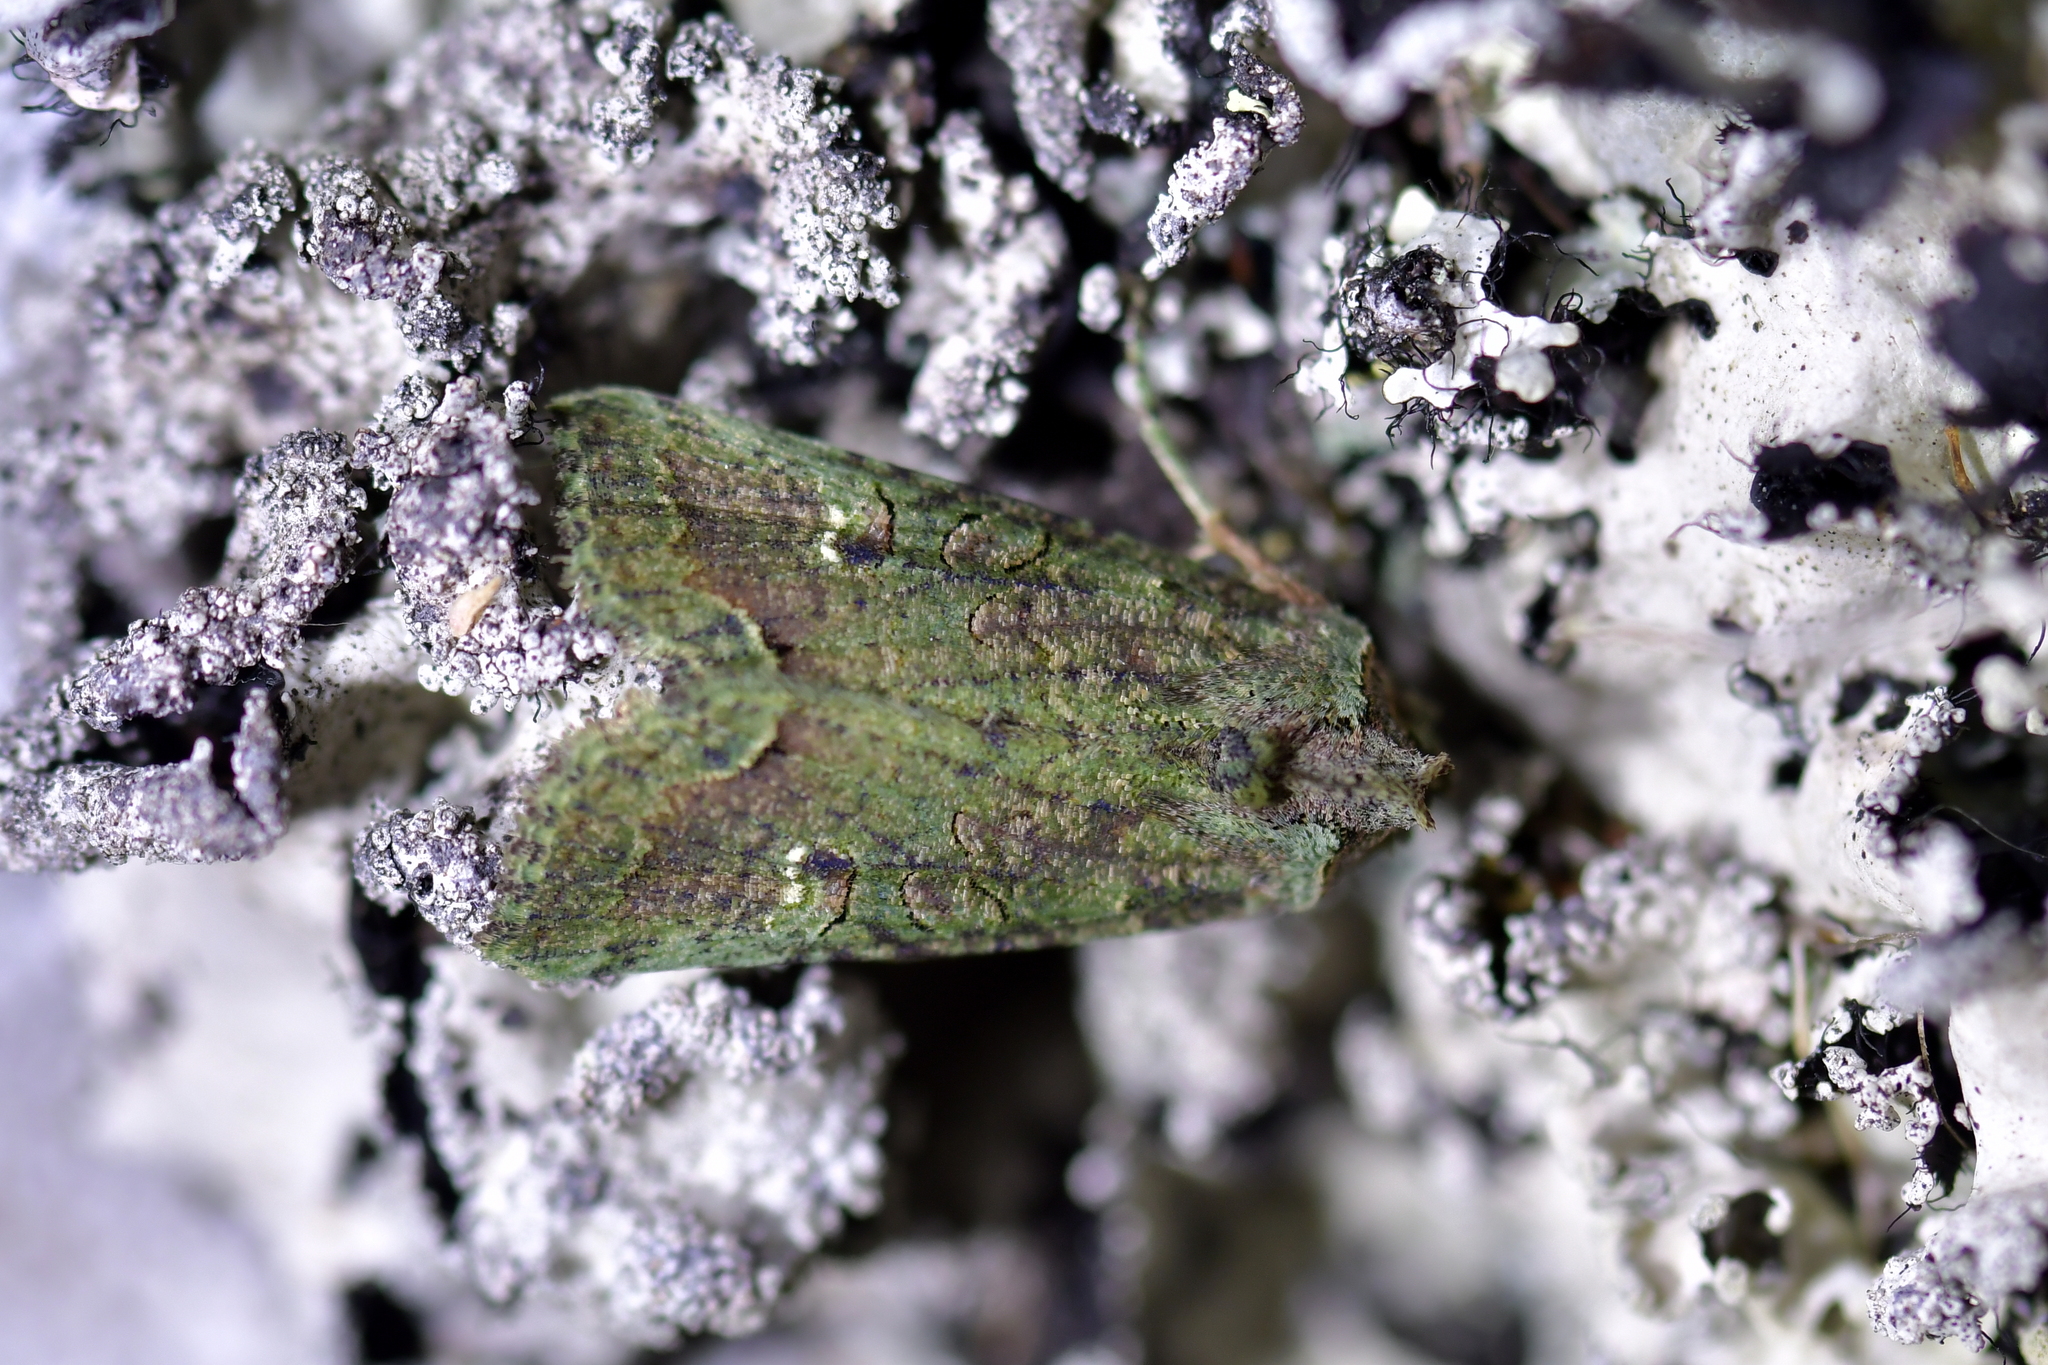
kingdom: Animalia
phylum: Arthropoda
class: Insecta
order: Lepidoptera
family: Noctuidae
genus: Meterana
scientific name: Meterana levis
